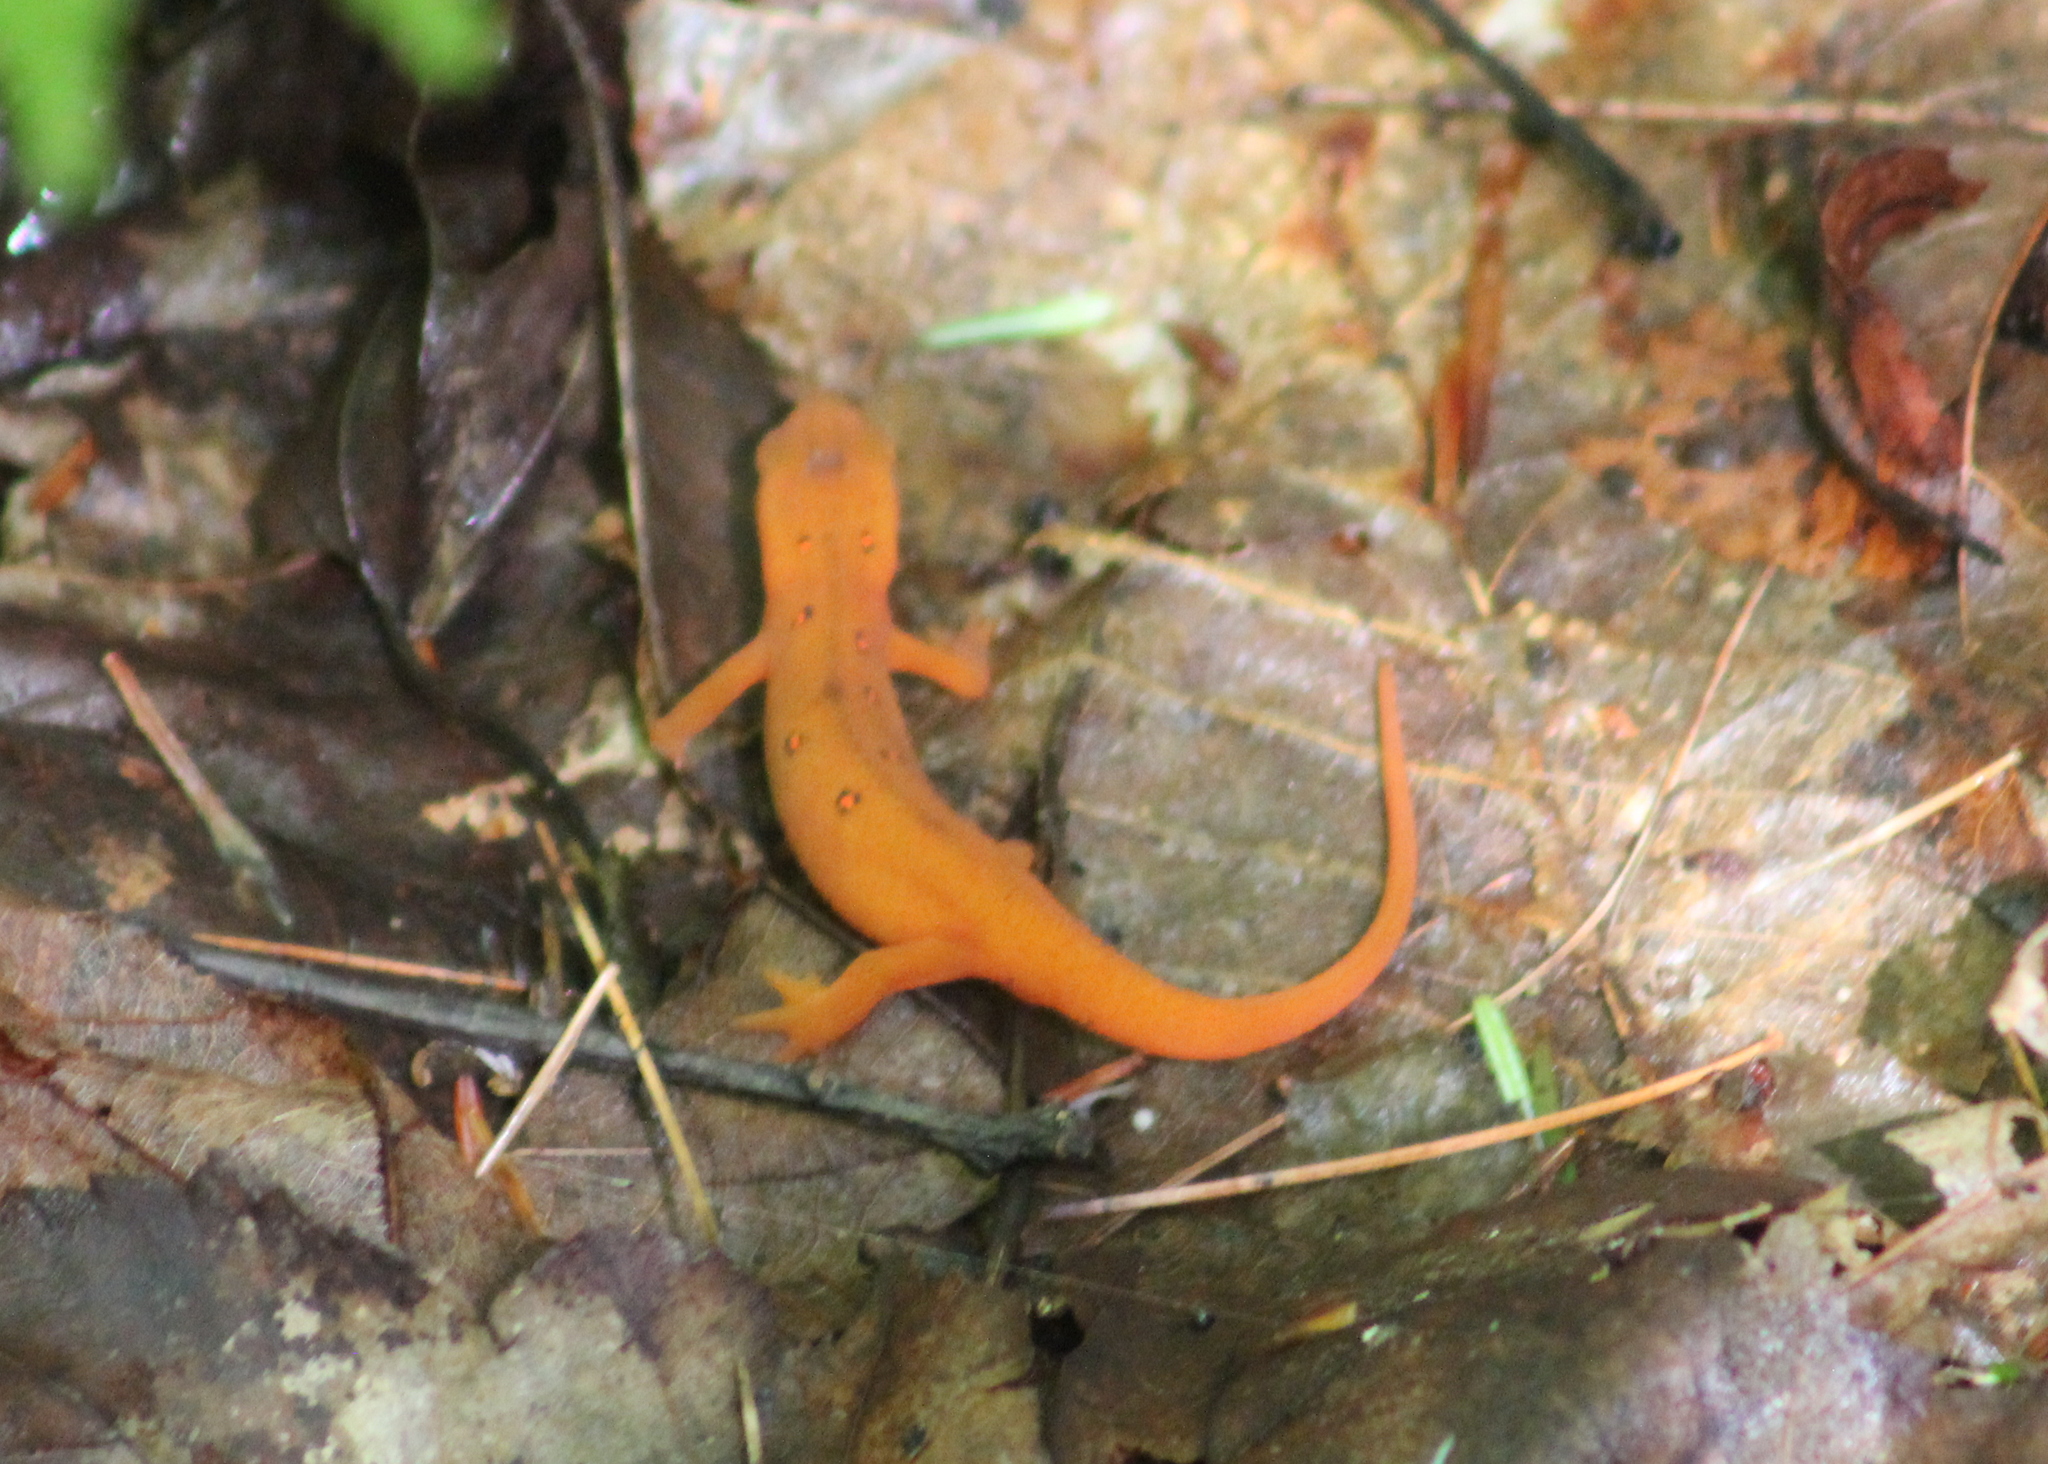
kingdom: Animalia
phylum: Chordata
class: Amphibia
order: Caudata
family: Salamandridae
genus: Notophthalmus
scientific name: Notophthalmus viridescens
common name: Eastern newt
